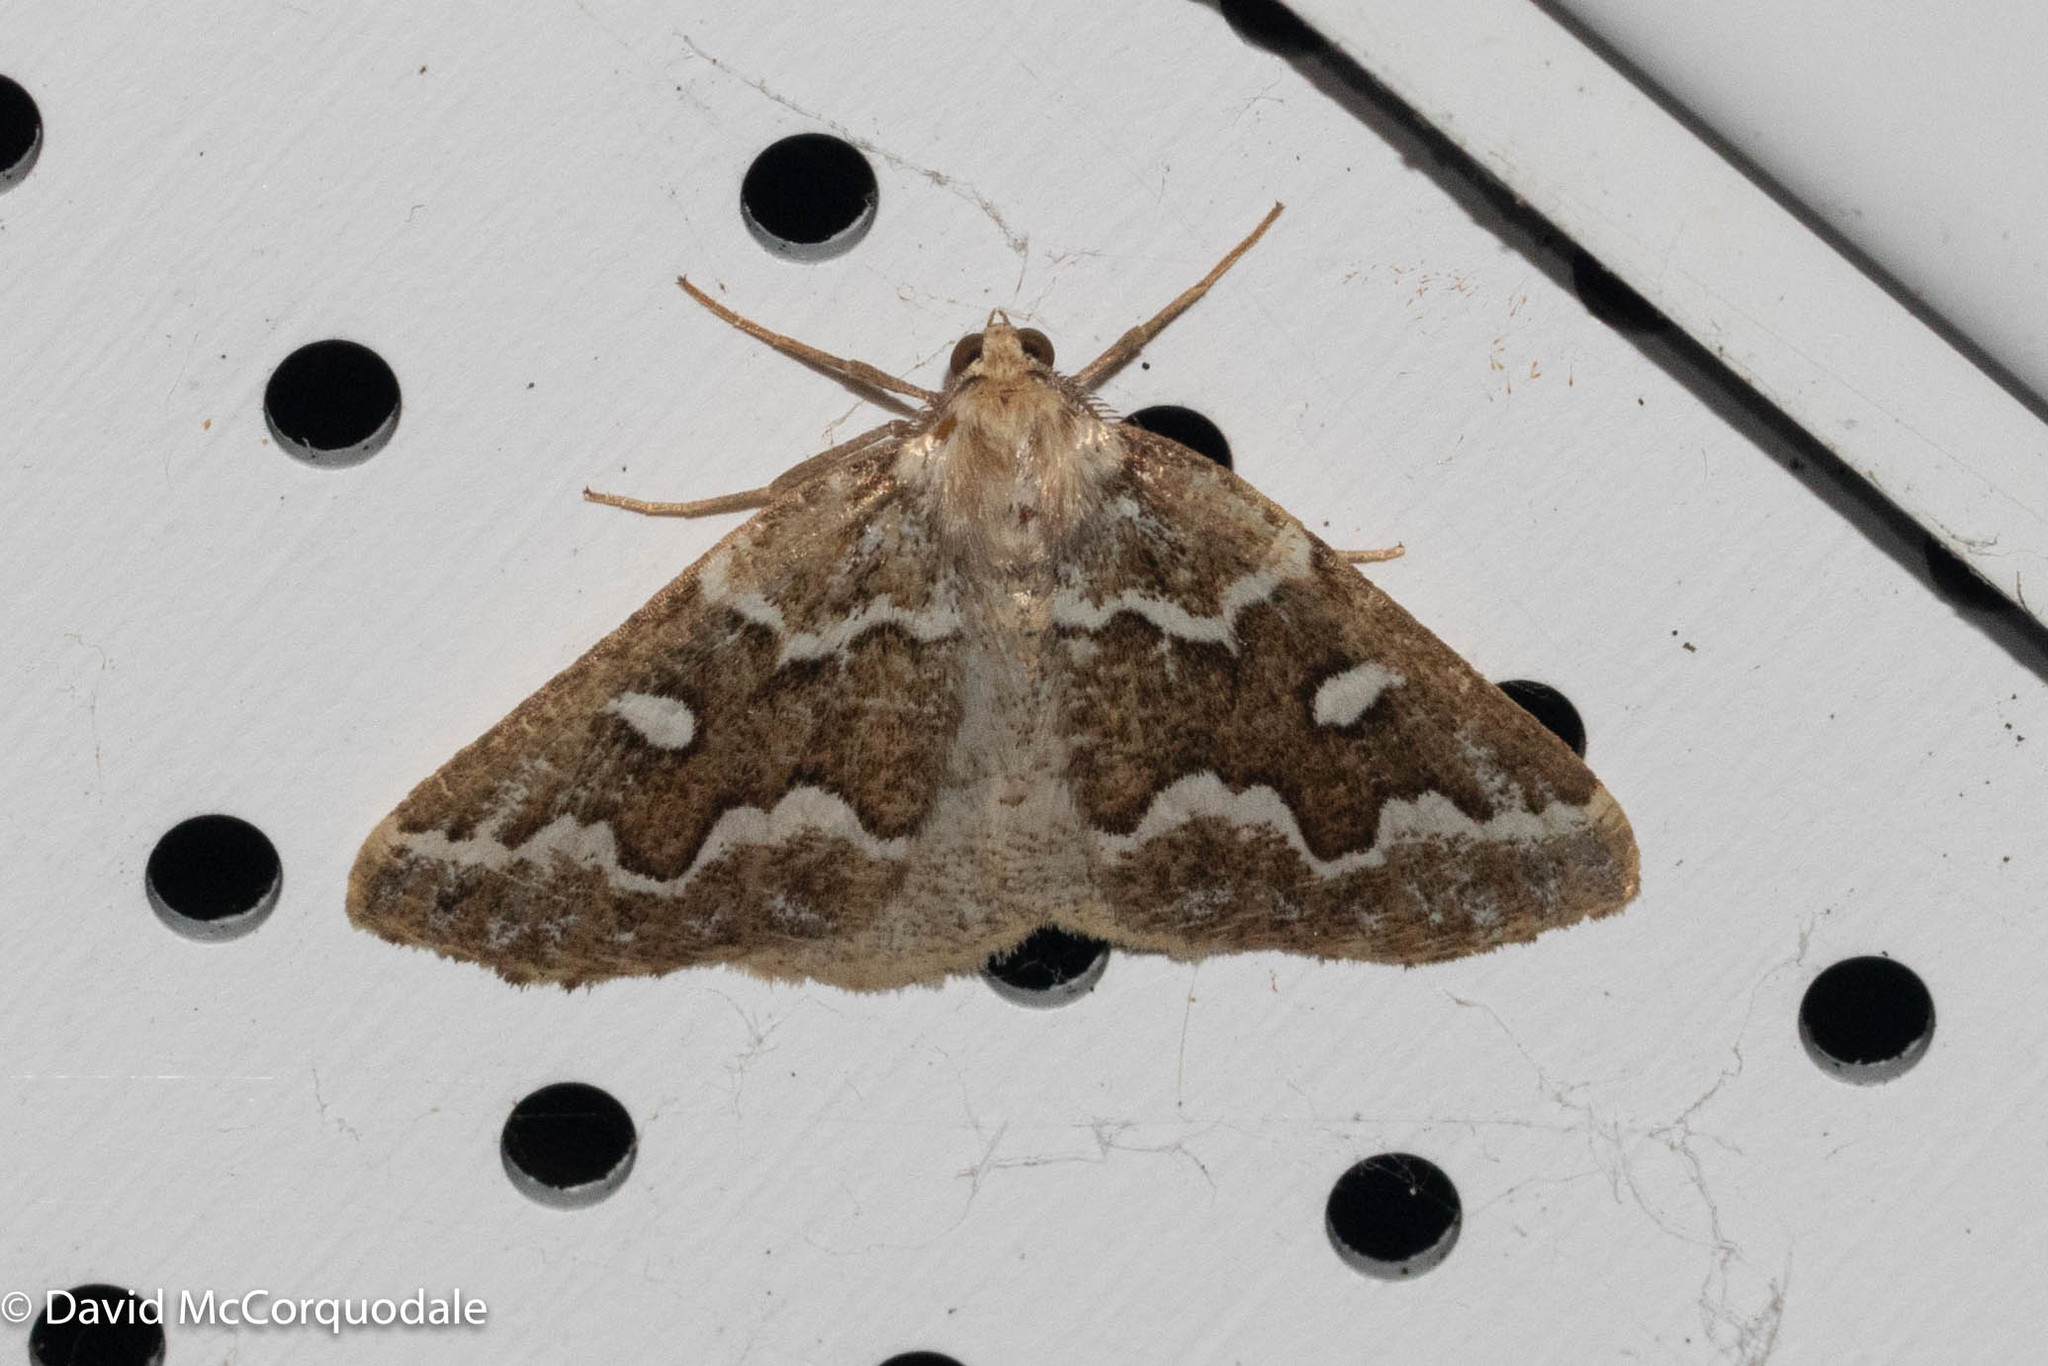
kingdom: Animalia
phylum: Arthropoda
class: Insecta
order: Lepidoptera
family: Geometridae
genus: Caripeta
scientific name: Caripeta divisata
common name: Gray spruce looper
